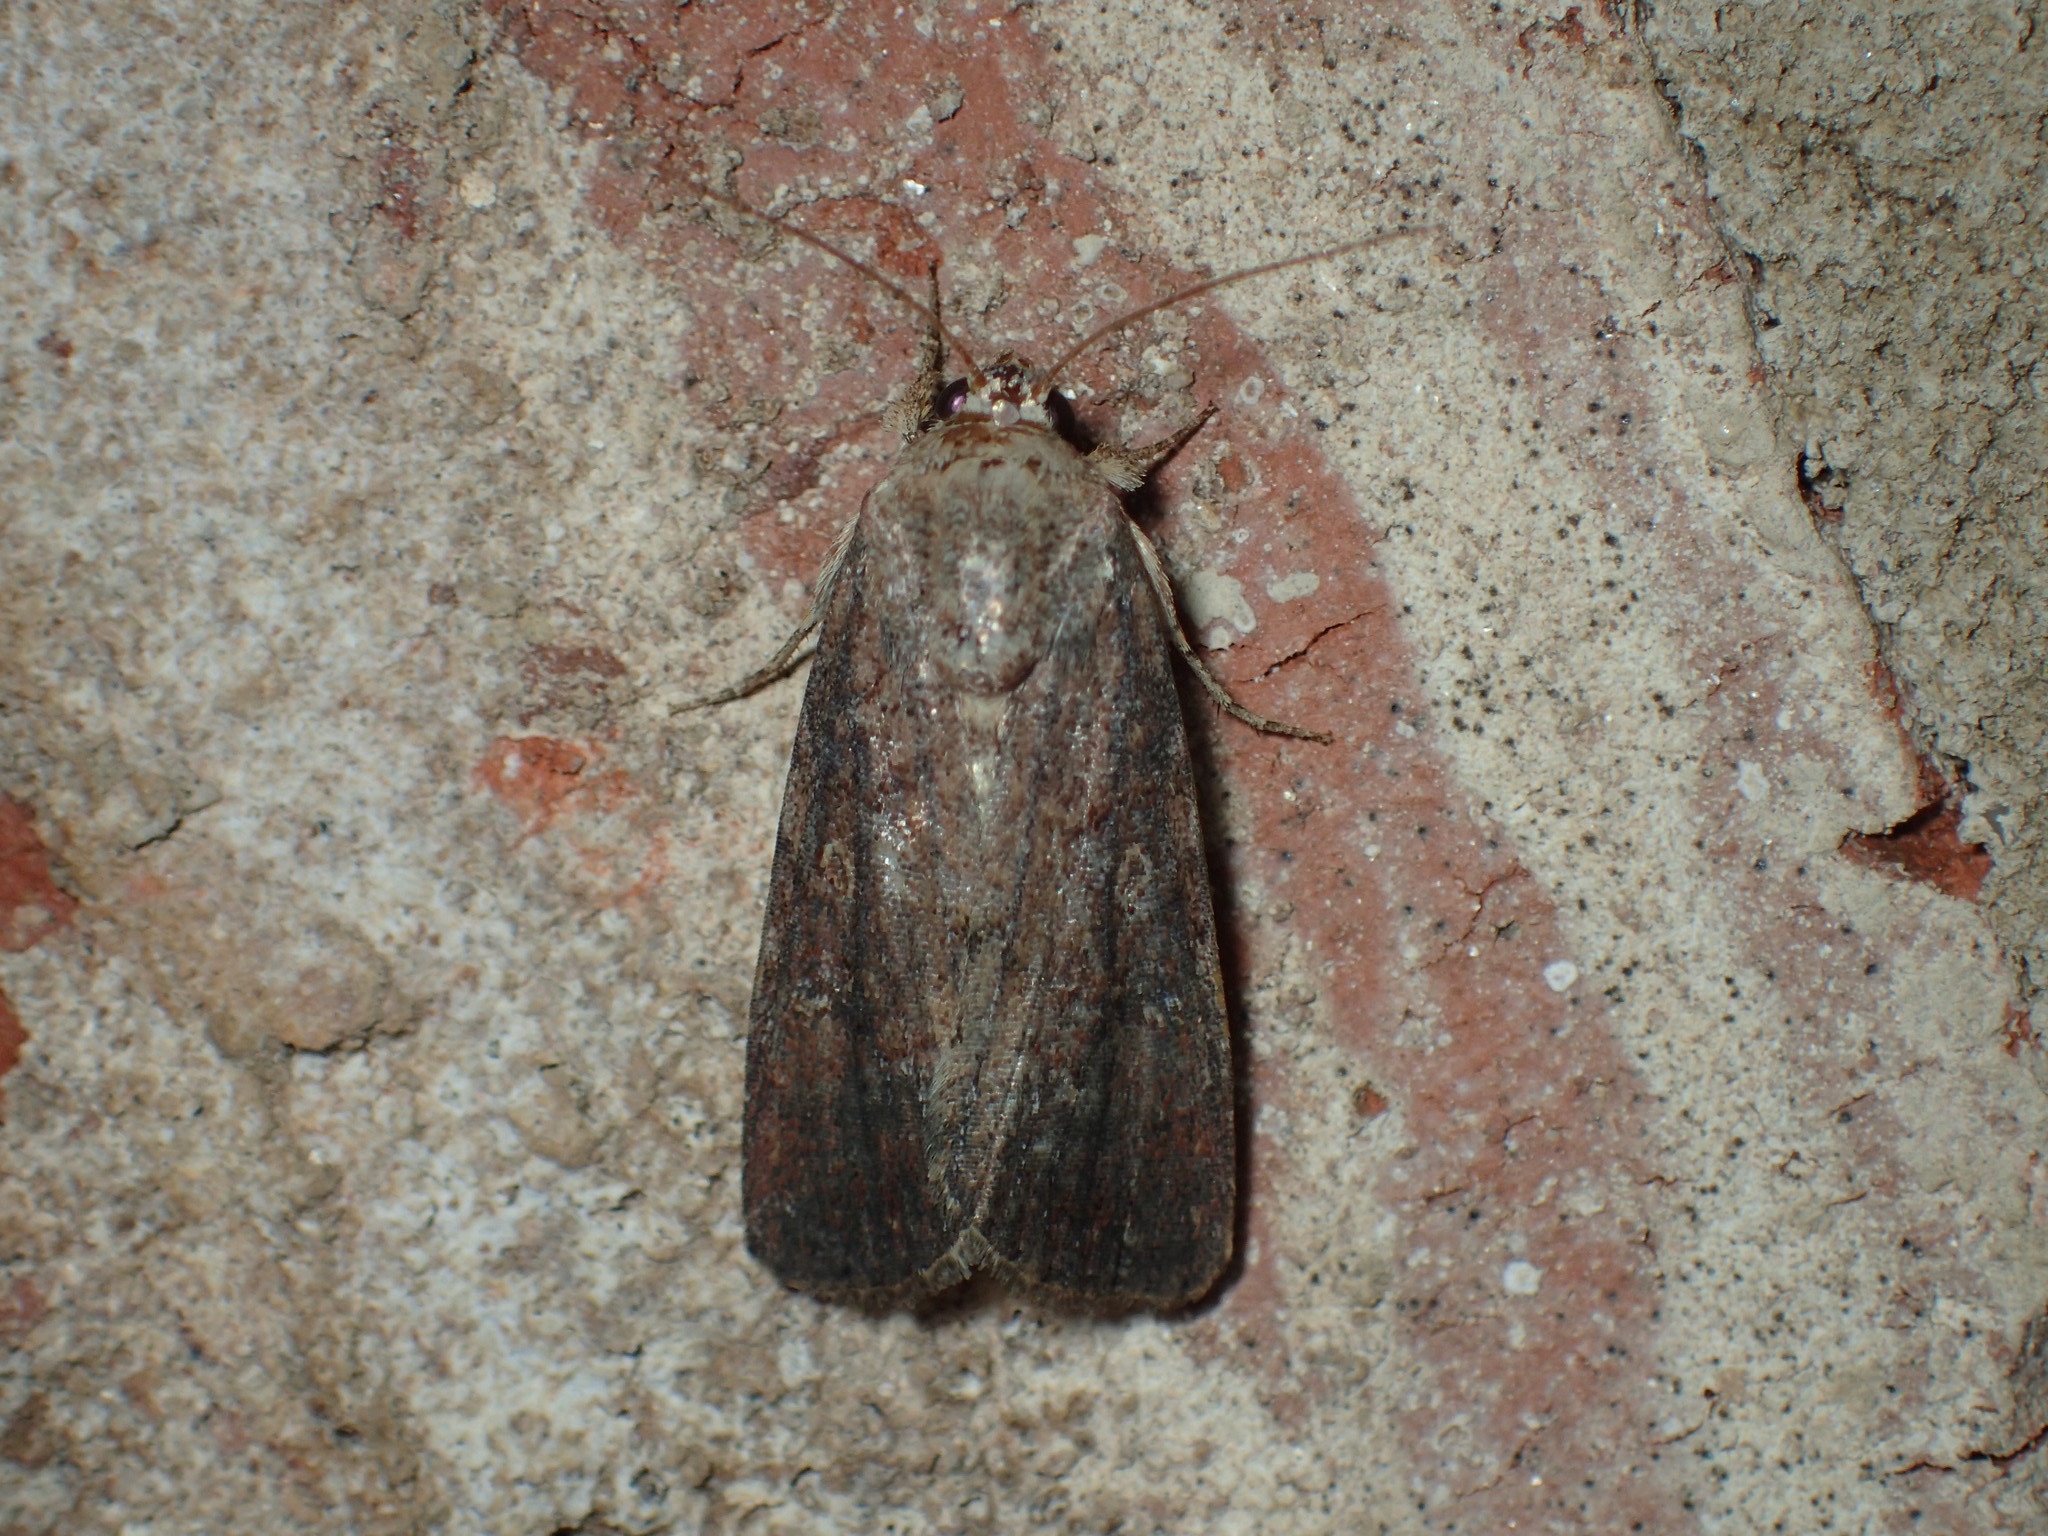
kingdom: Animalia
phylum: Arthropoda
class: Insecta
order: Lepidoptera
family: Noctuidae
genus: Spodoptera
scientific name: Spodoptera frugiperda
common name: Fall armyworm
